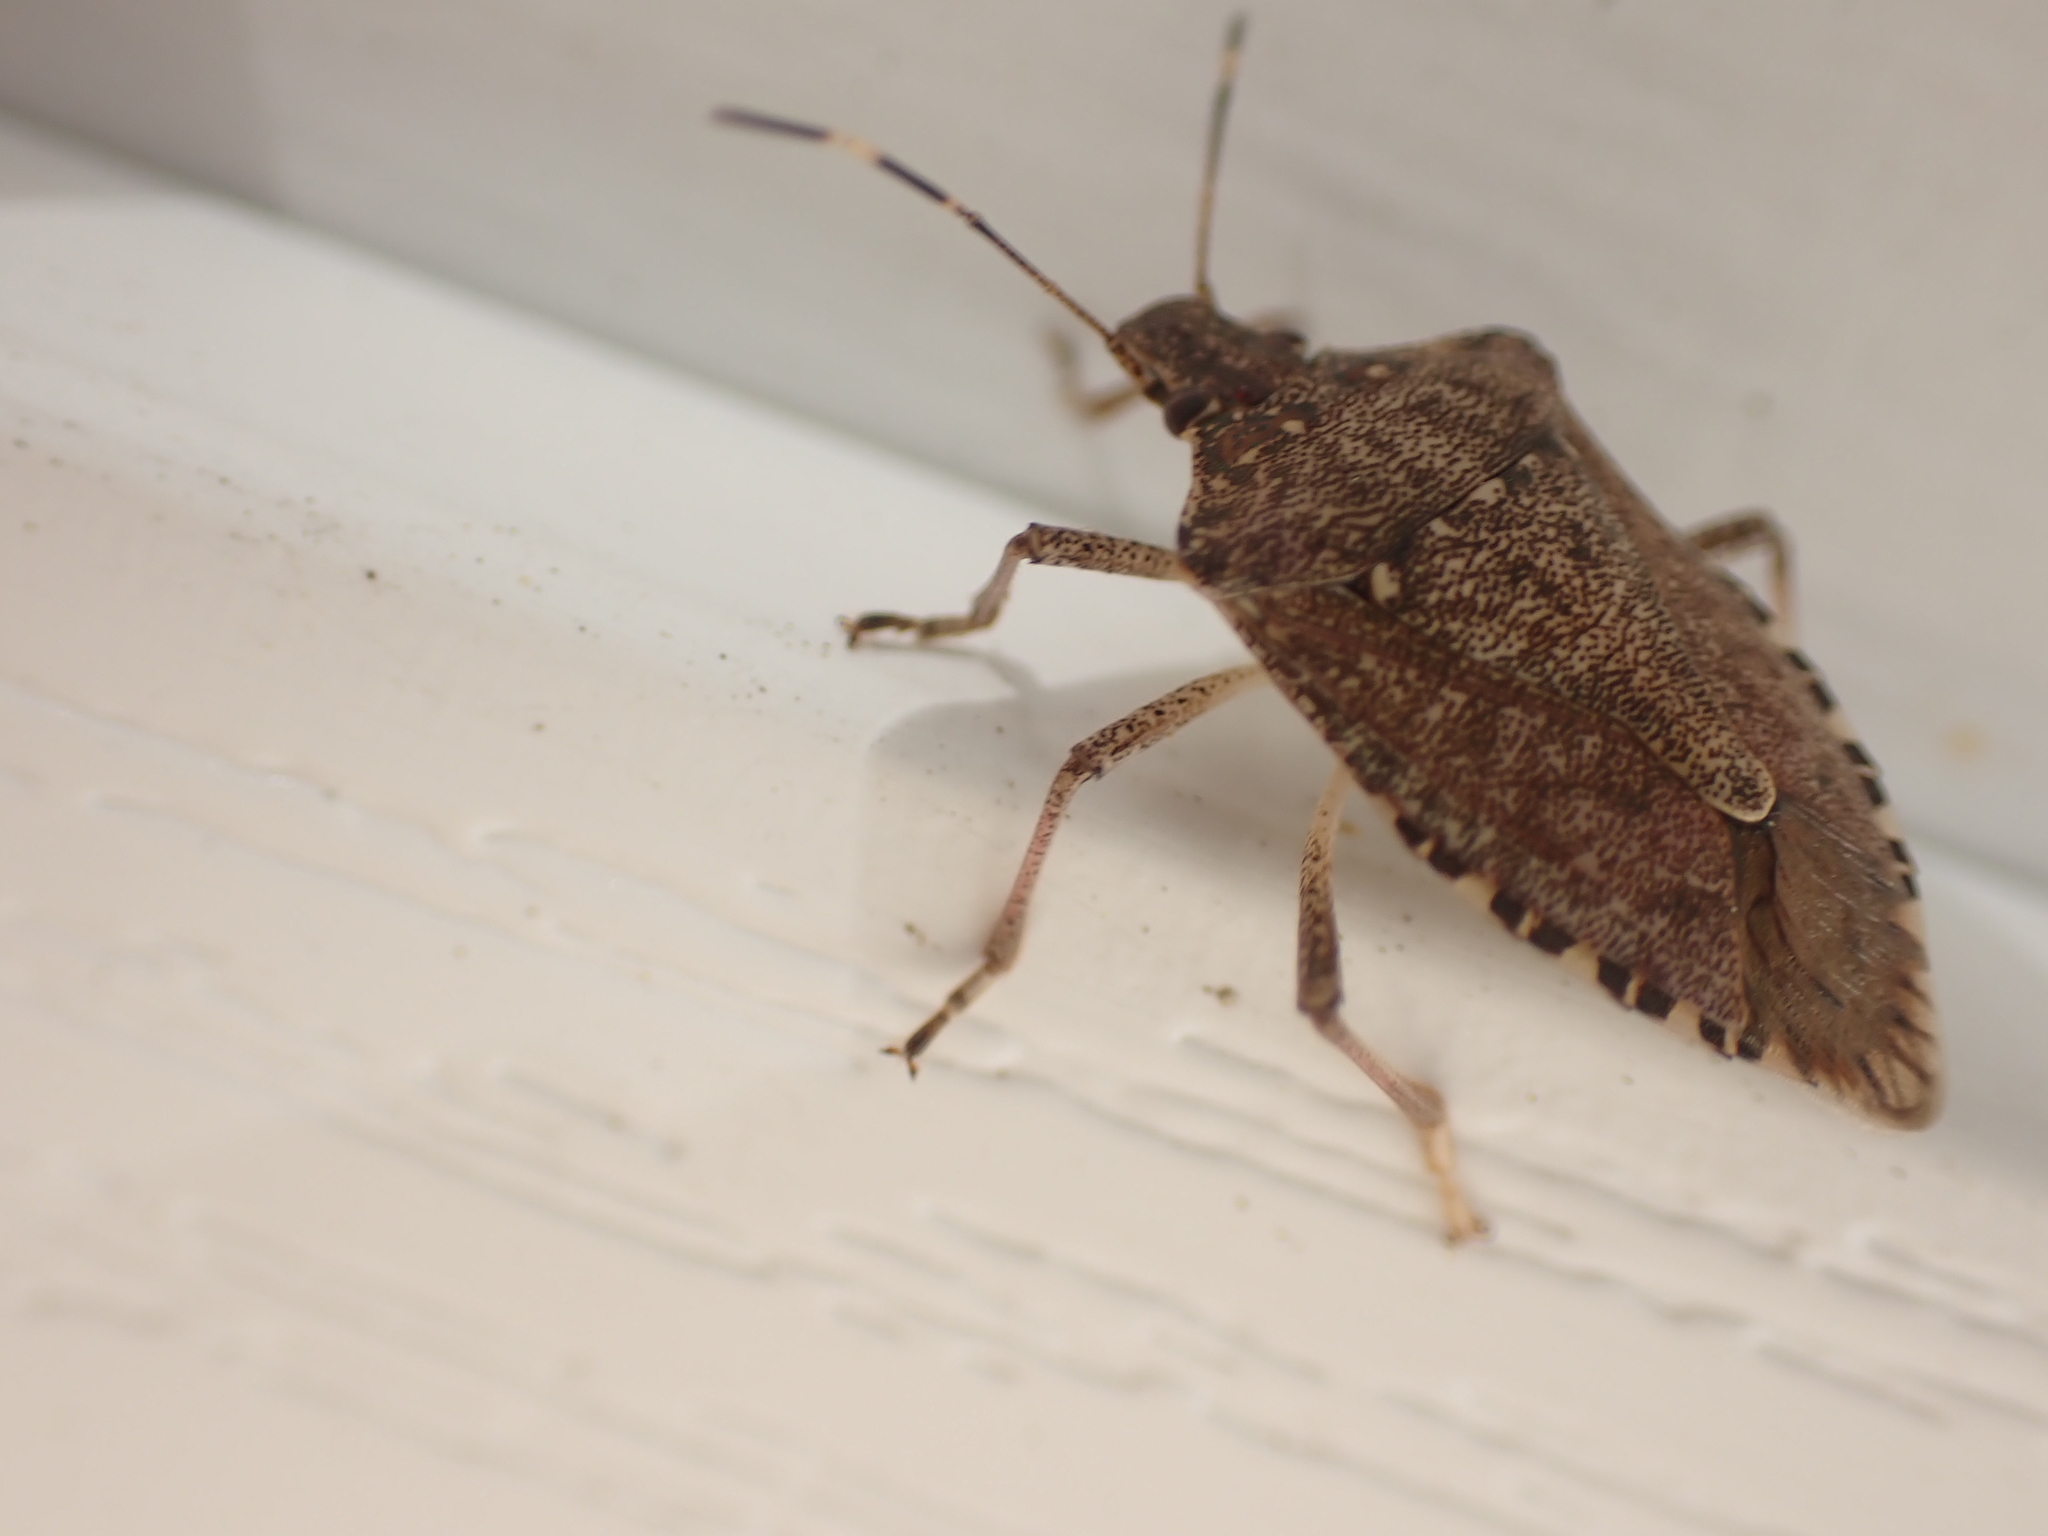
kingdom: Animalia
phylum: Arthropoda
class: Insecta
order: Hemiptera
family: Pentatomidae
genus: Halyomorpha
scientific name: Halyomorpha halys
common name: Brown marmorated stink bug
